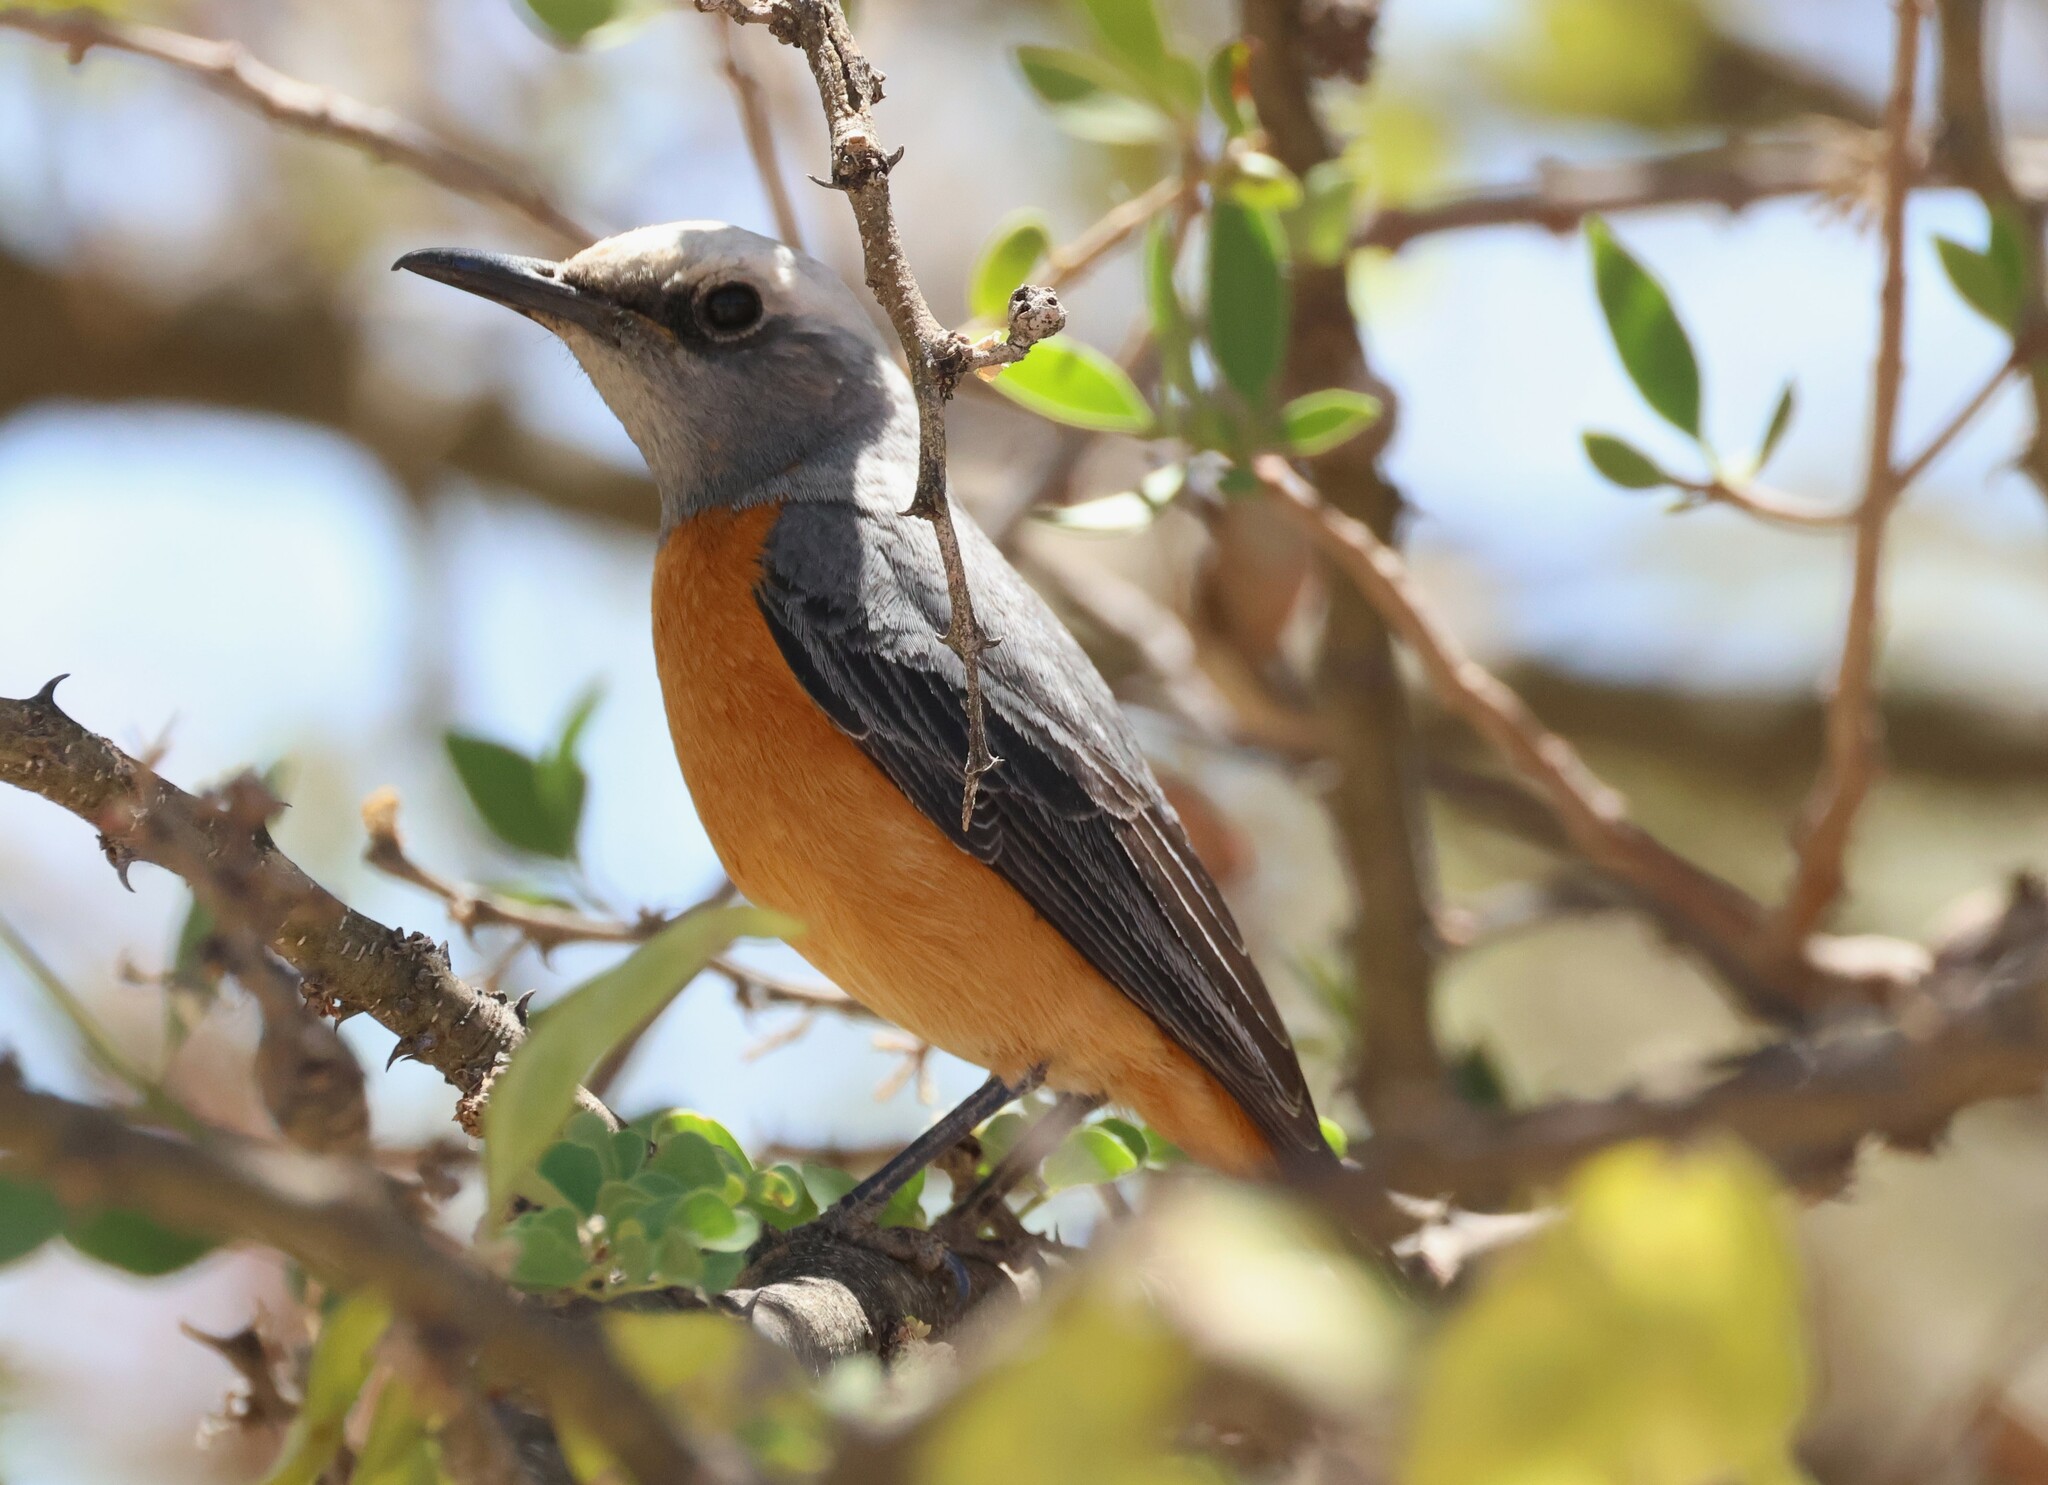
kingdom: Animalia
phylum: Chordata
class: Aves
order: Passeriformes
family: Muscicapidae
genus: Monticola
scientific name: Monticola brevipes
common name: Short-toed rock thrush
